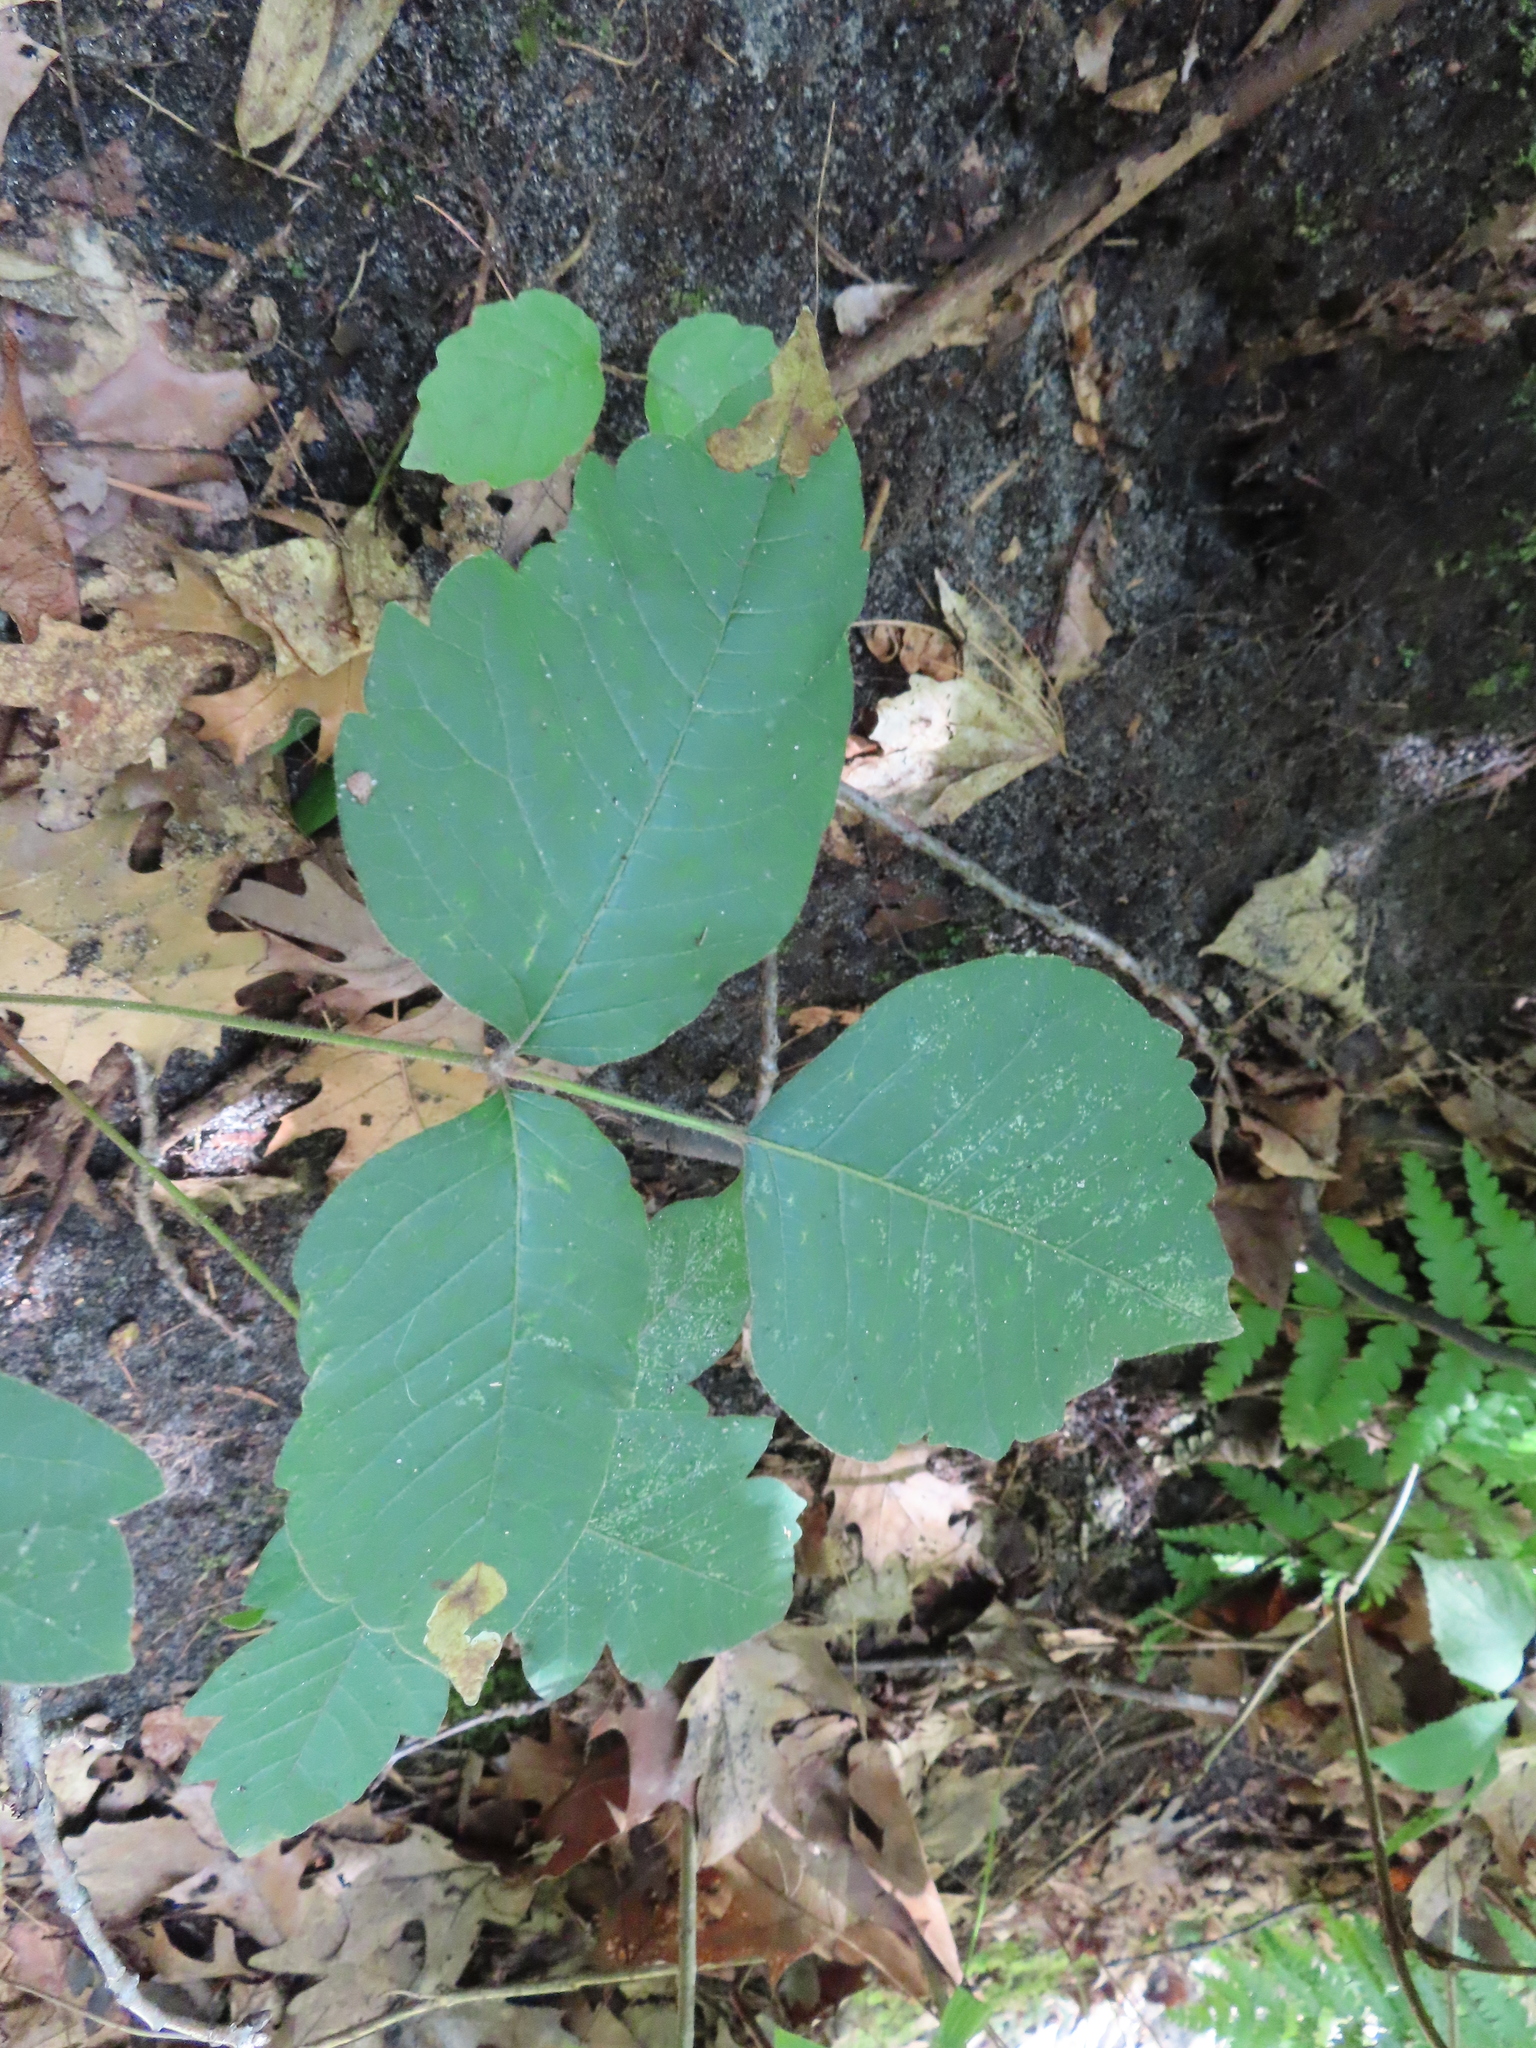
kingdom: Plantae
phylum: Tracheophyta
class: Magnoliopsida
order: Sapindales
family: Anacardiaceae
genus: Toxicodendron
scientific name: Toxicodendron radicans
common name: Poison ivy
